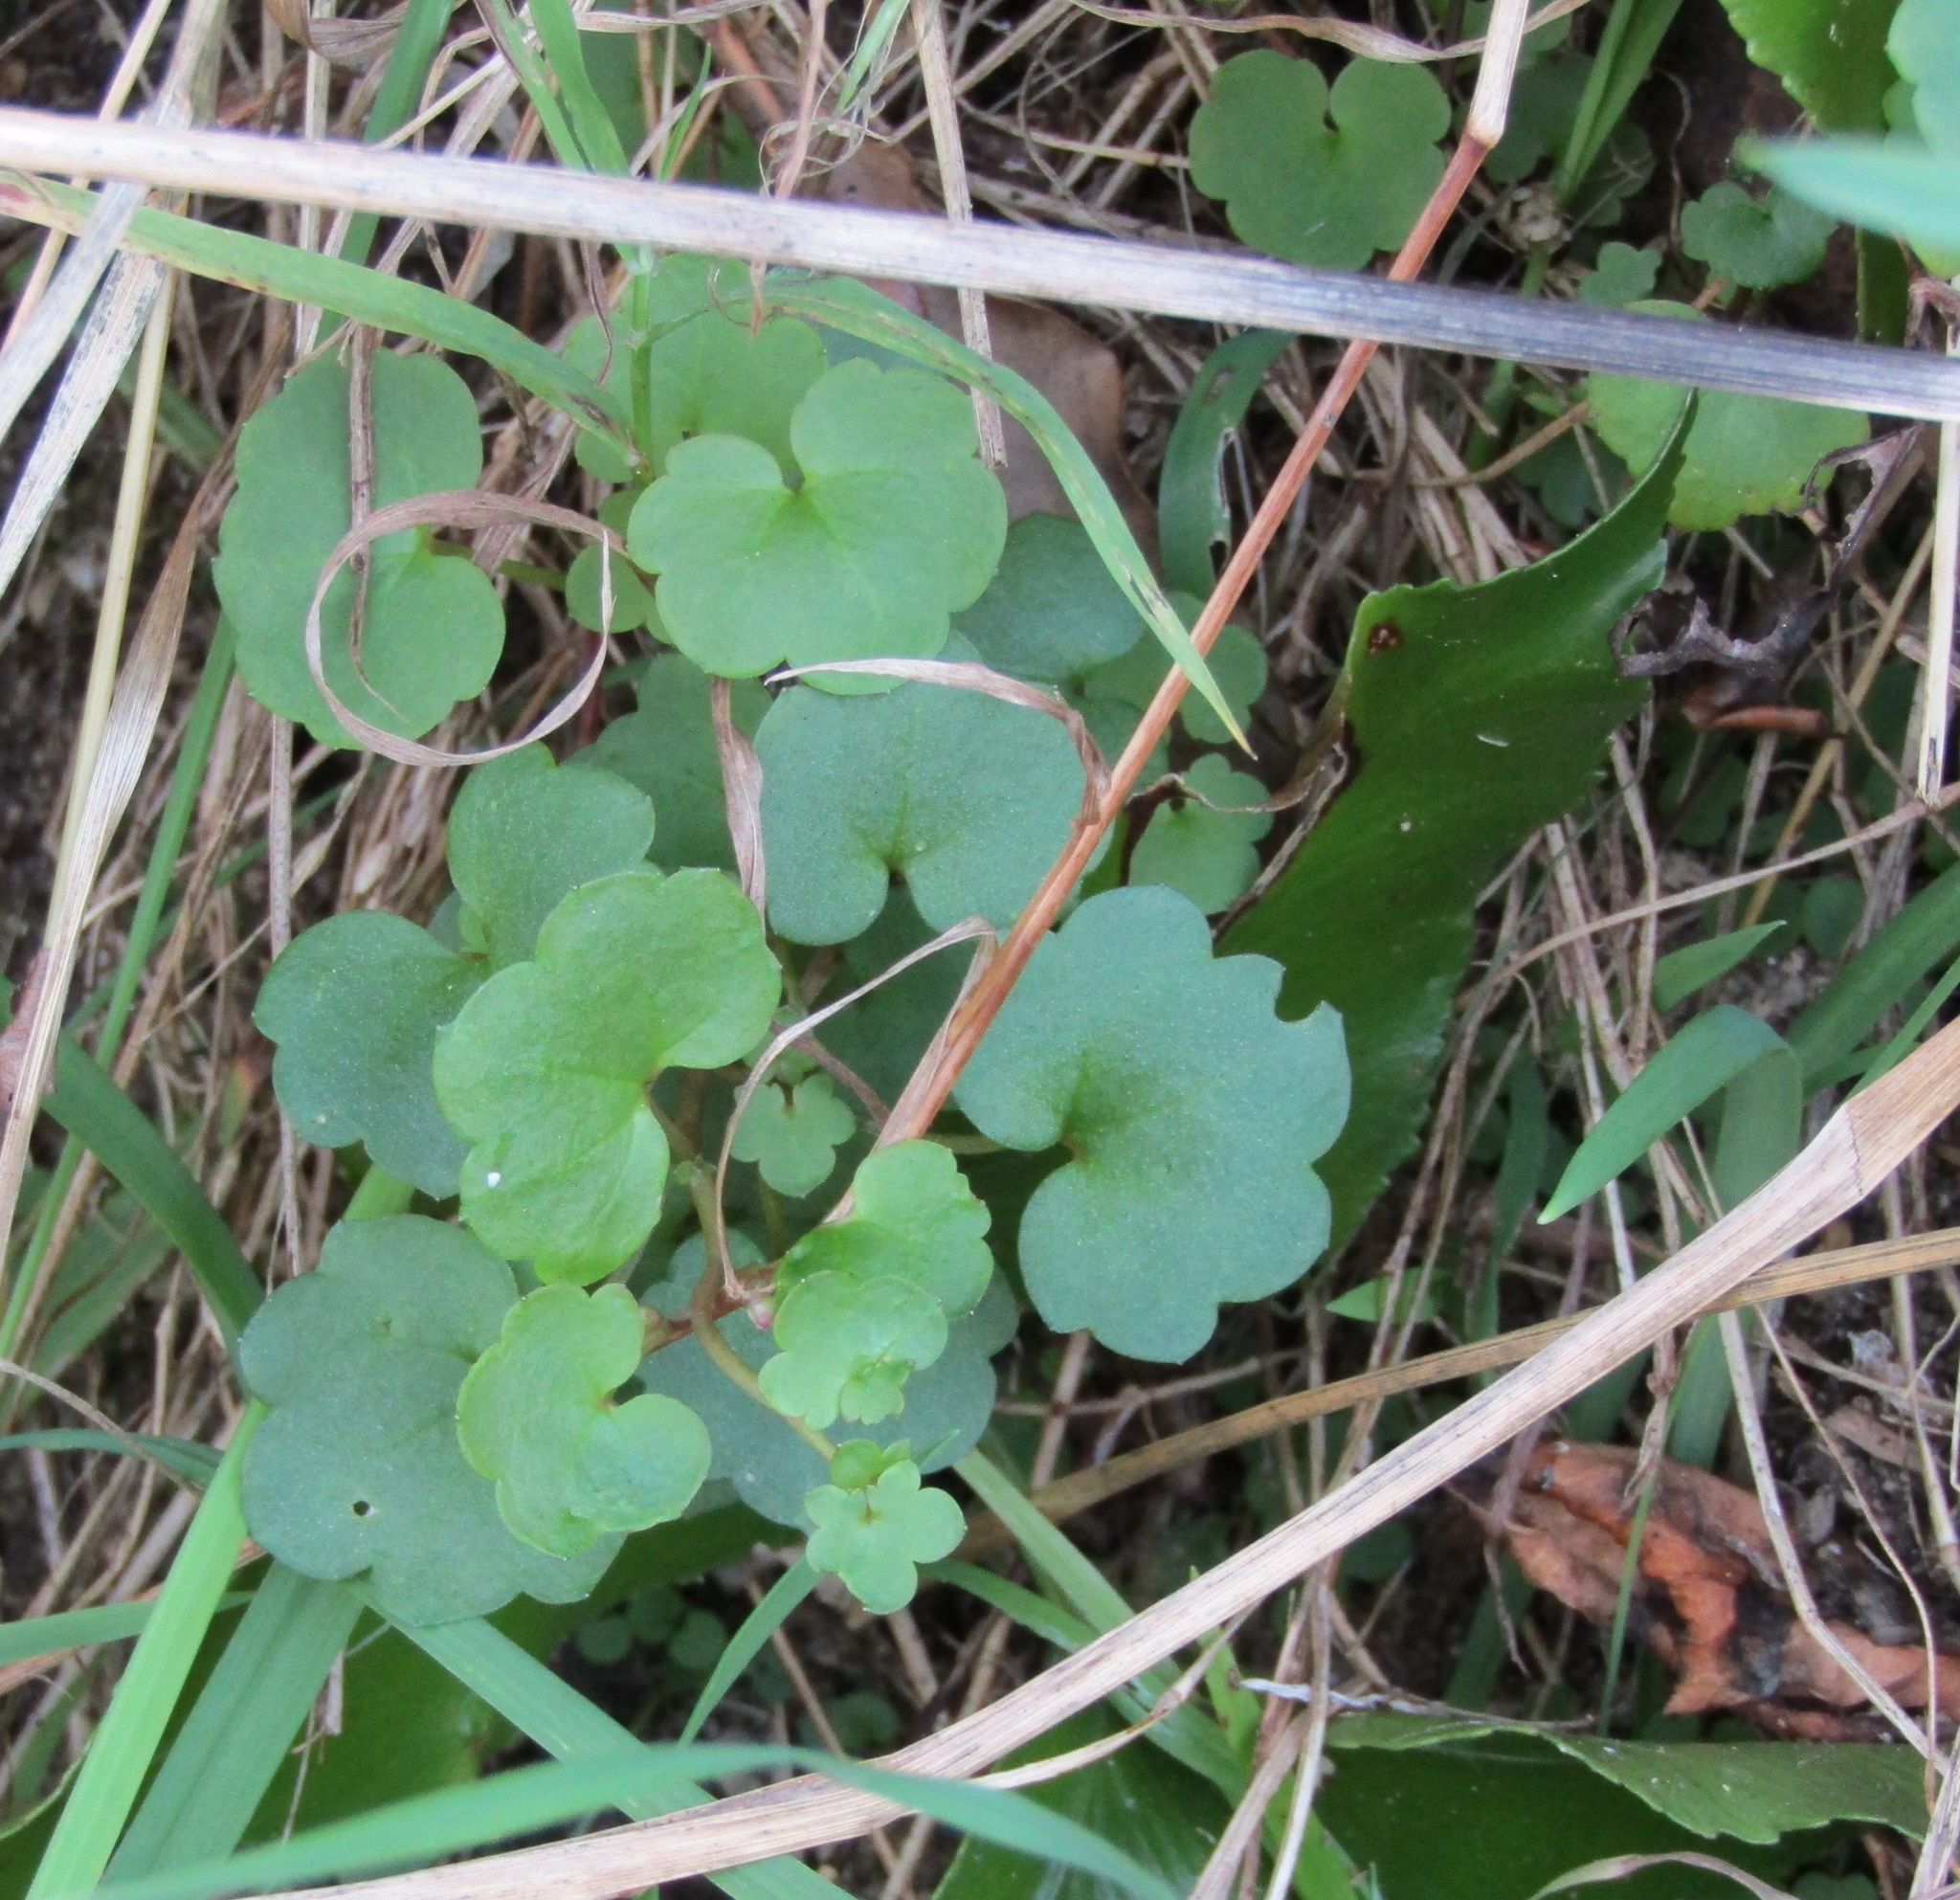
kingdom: Plantae
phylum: Tracheophyta
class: Magnoliopsida
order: Lamiales
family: Plantaginaceae
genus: Cymbalaria
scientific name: Cymbalaria muralis
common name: Ivy-leaved toadflax
